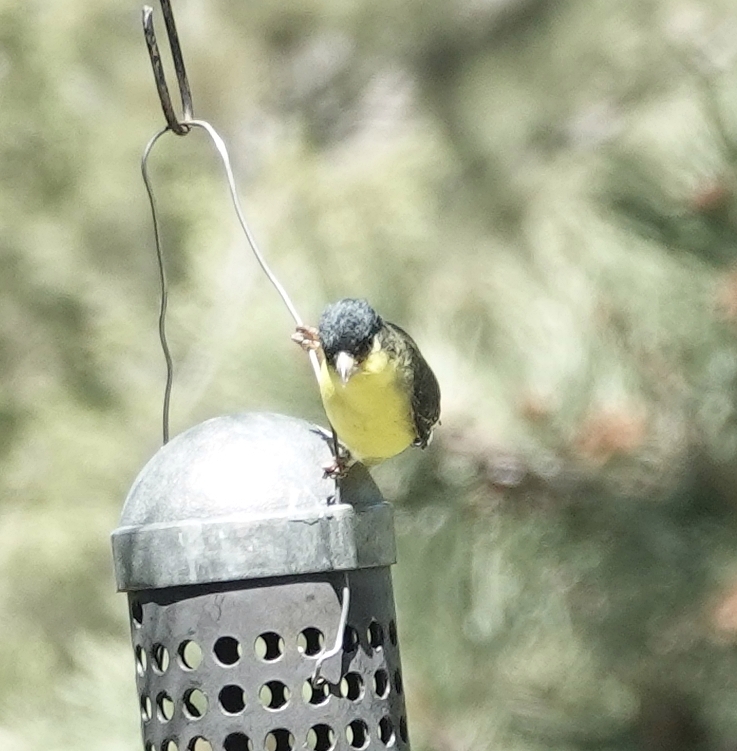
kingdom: Animalia
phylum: Chordata
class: Aves
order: Passeriformes
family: Fringillidae
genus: Spinus
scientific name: Spinus psaltria
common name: Lesser goldfinch
